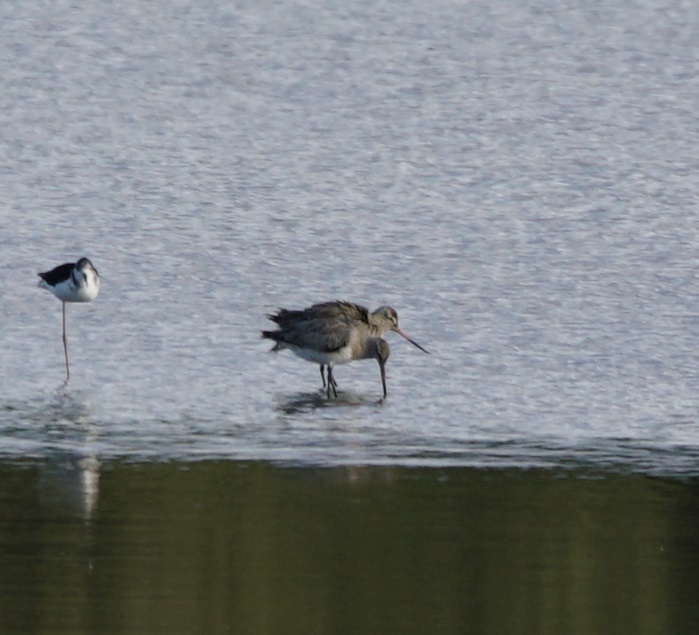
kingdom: Animalia
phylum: Chordata
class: Aves
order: Charadriiformes
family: Scolopacidae
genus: Limosa
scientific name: Limosa lapponica
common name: Bar-tailed godwit
